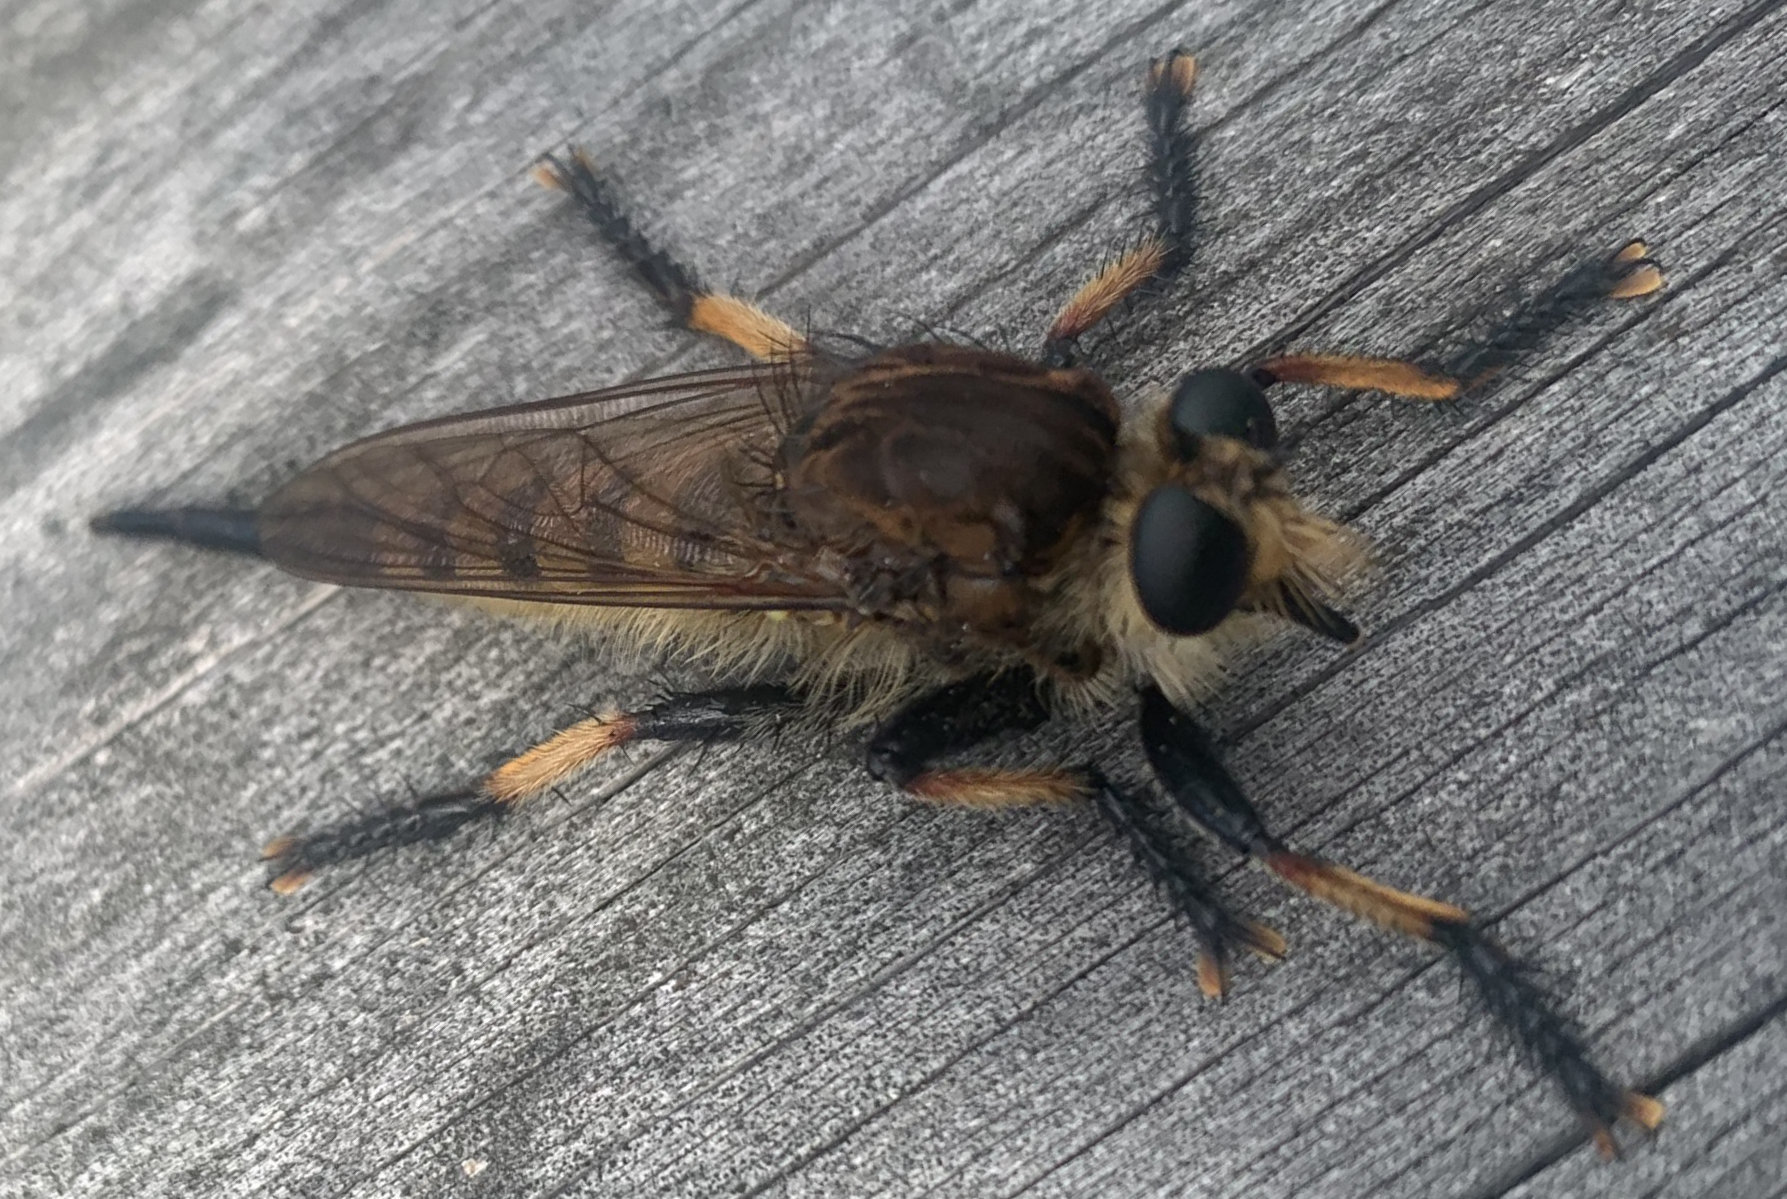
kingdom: Animalia
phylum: Arthropoda
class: Insecta
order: Diptera
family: Asilidae
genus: Promachus
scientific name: Promachus rufipes
